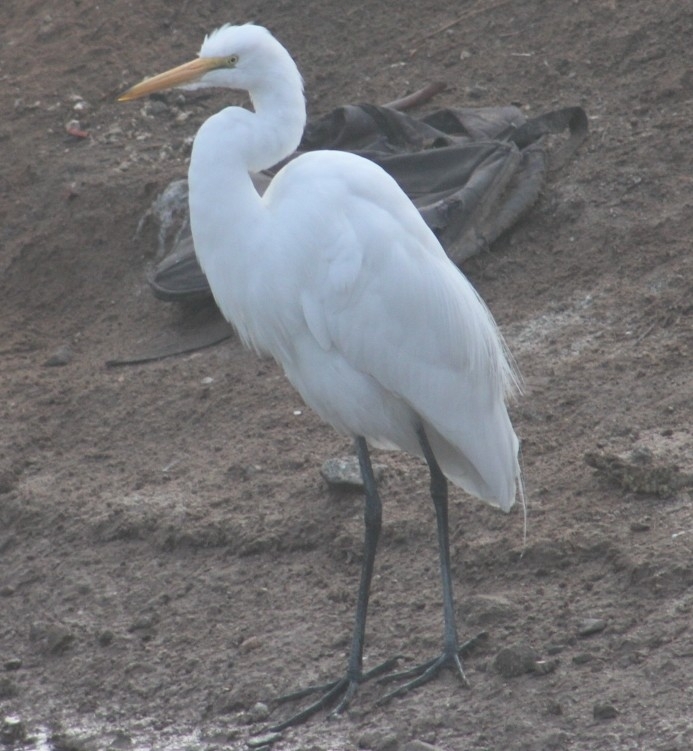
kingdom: Animalia
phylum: Chordata
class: Aves
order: Pelecaniformes
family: Ardeidae
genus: Ardea
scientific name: Ardea alba
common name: Great egret
